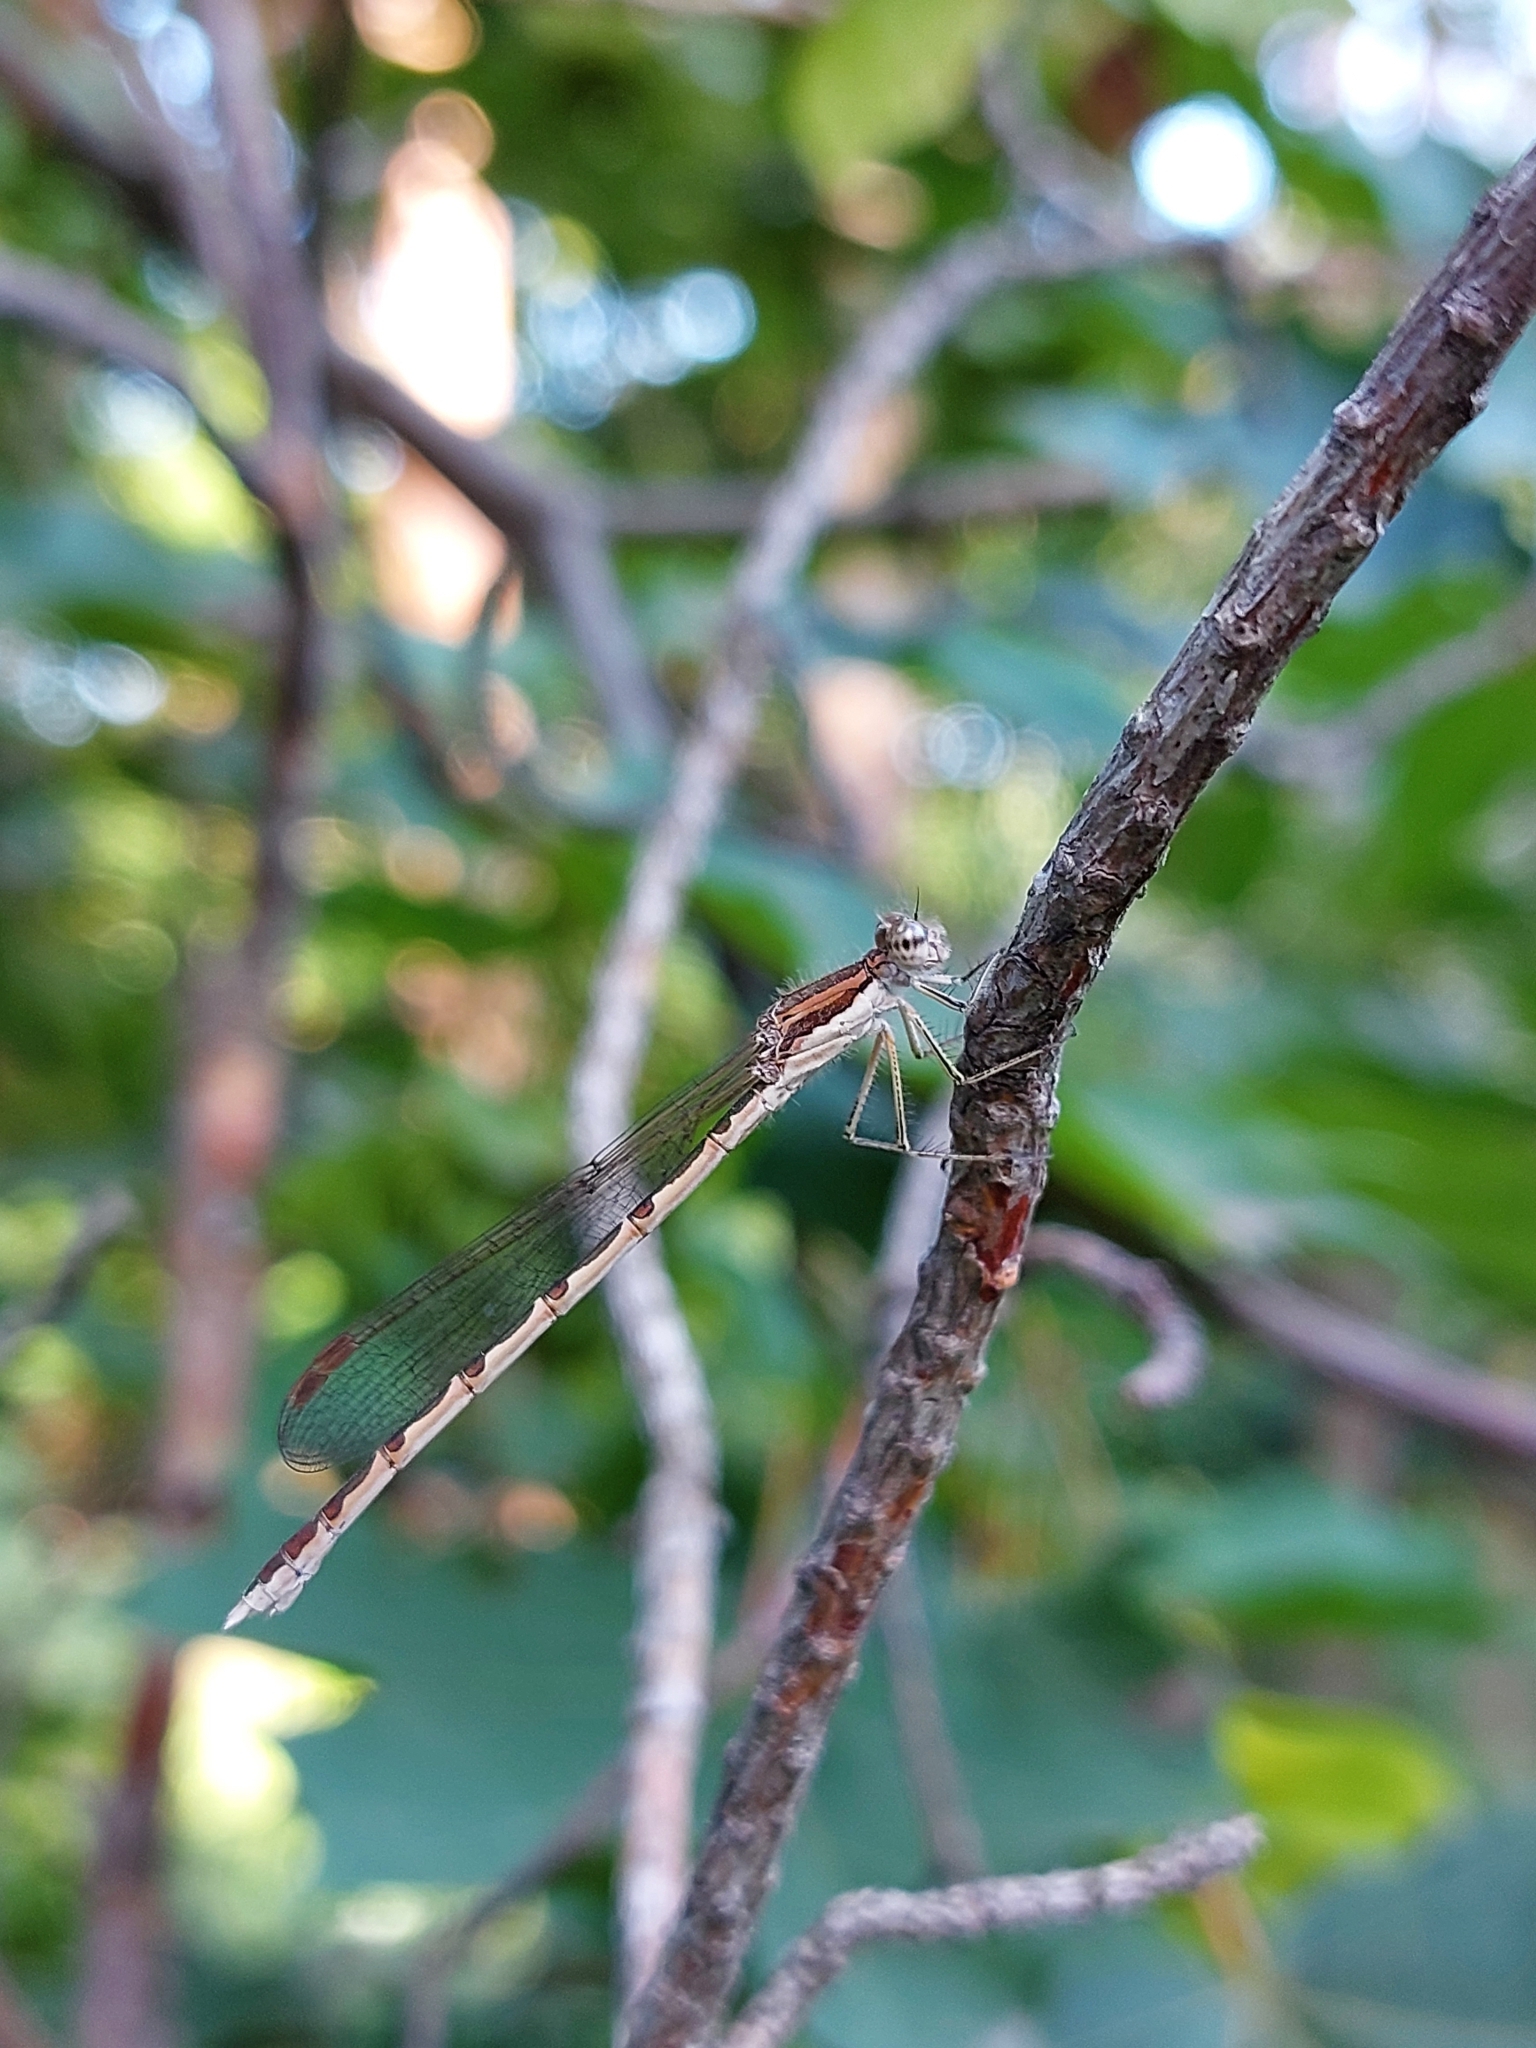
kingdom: Animalia
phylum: Arthropoda
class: Insecta
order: Odonata
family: Lestidae
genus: Sympecma
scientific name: Sympecma fusca
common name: Common winter damsel
